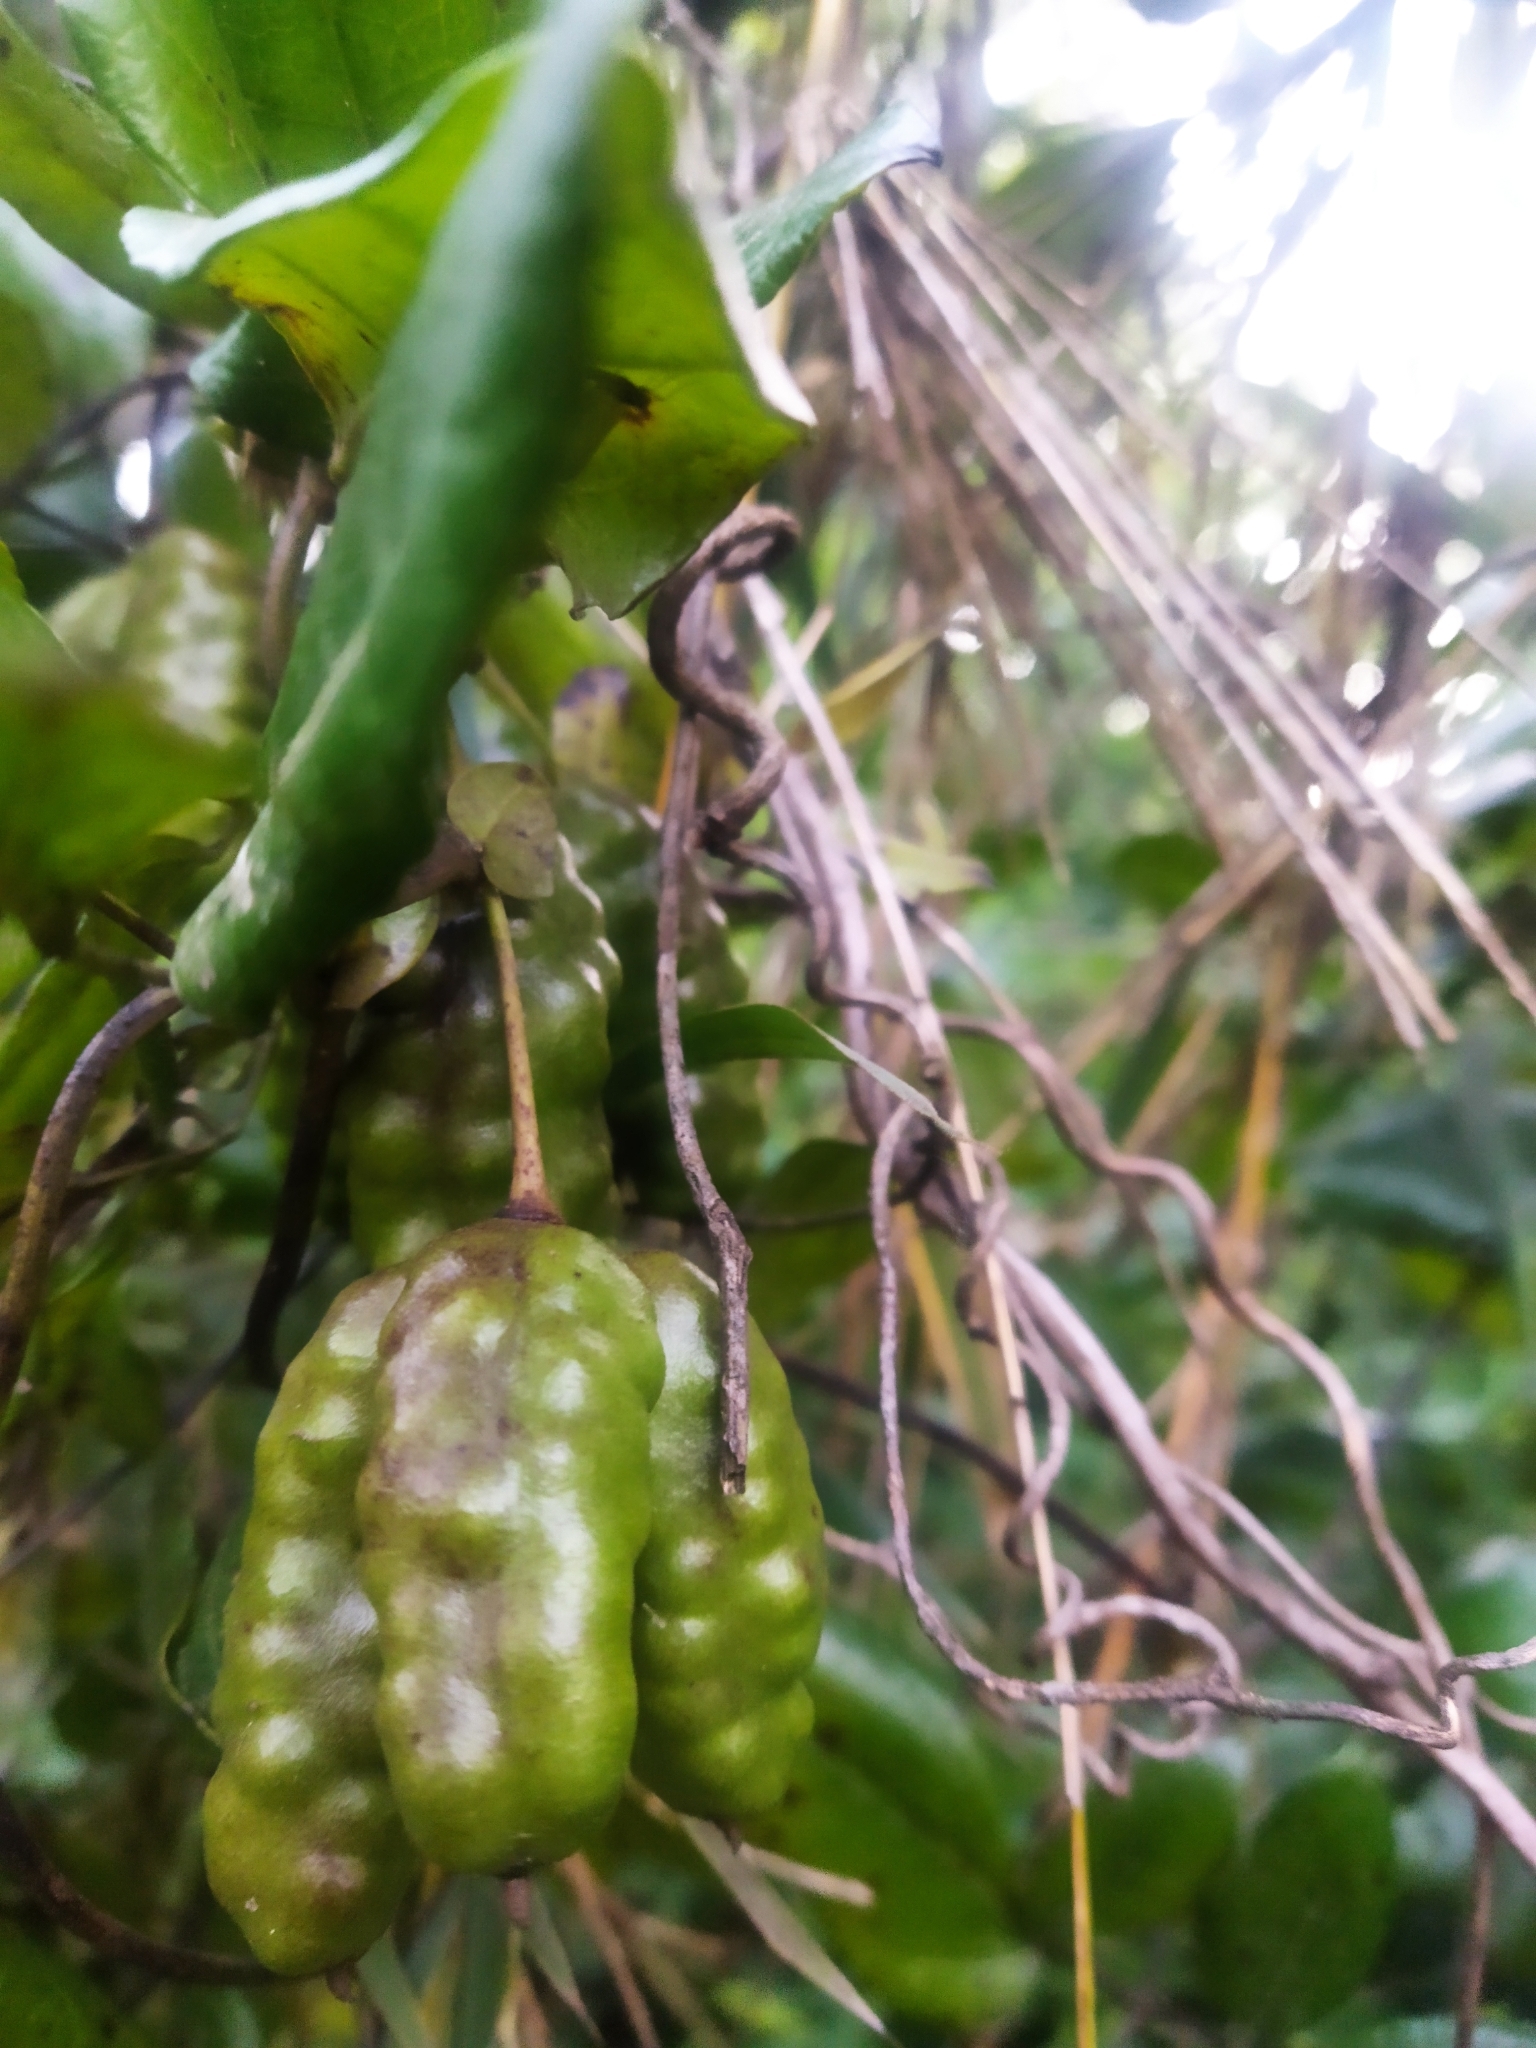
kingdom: Plantae
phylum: Tracheophyta
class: Magnoliopsida
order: Ranunculales
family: Lardizabalaceae
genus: Lardizabala
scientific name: Lardizabala funaria
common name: Zabala
